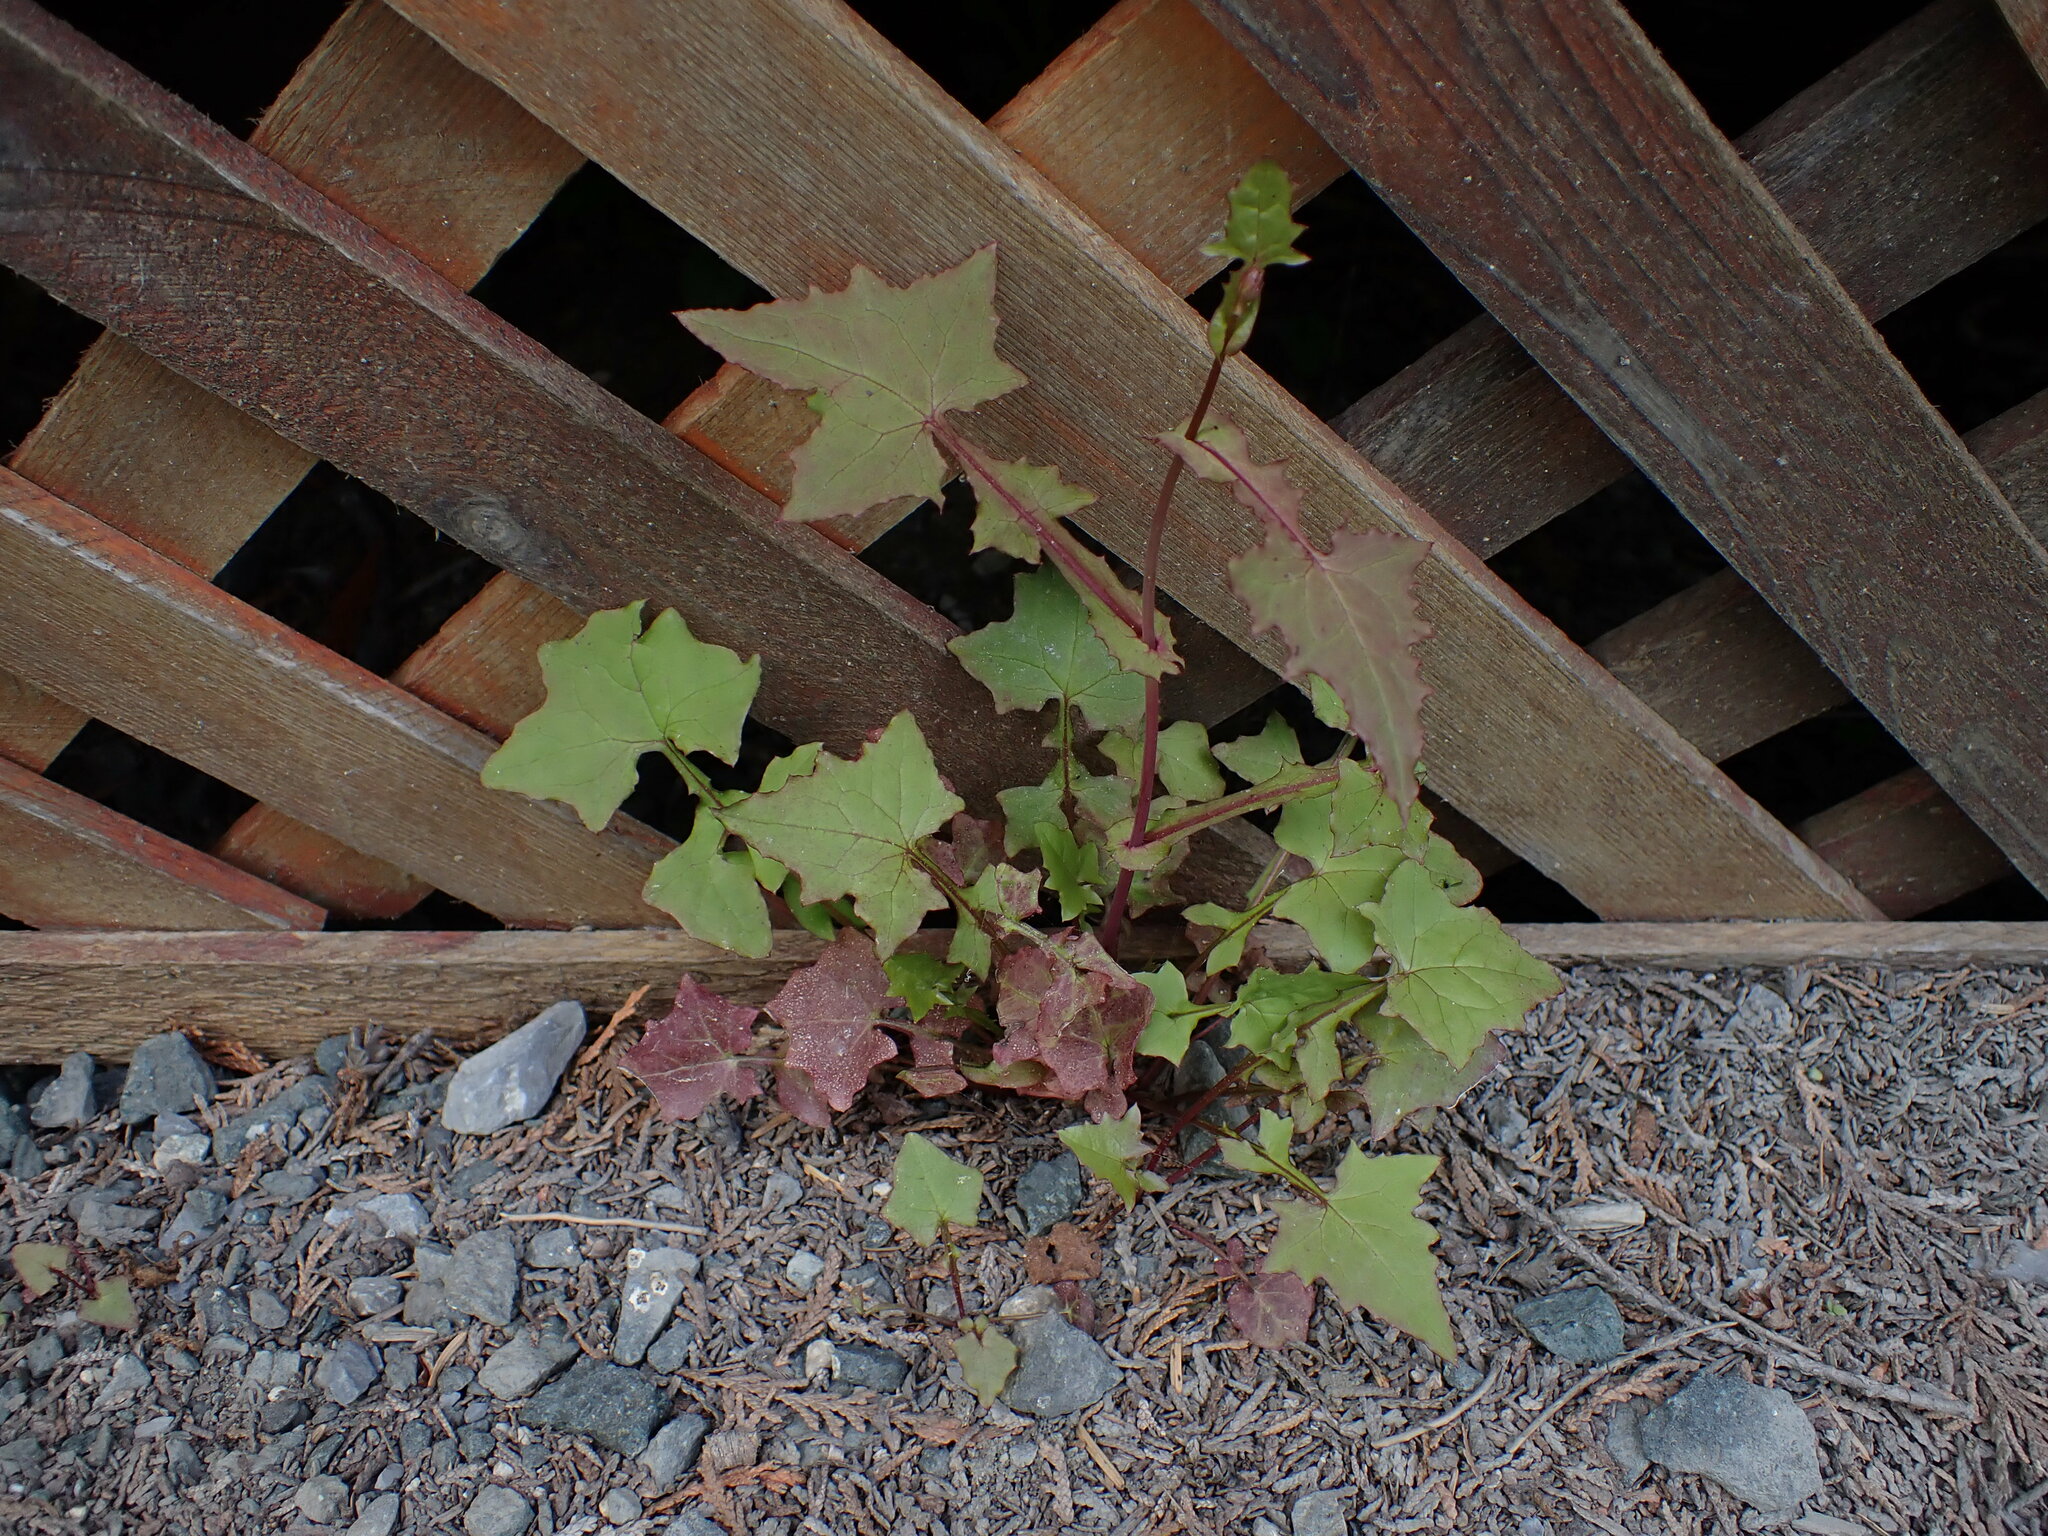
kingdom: Plantae
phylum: Tracheophyta
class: Magnoliopsida
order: Asterales
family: Asteraceae
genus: Mycelis
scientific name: Mycelis muralis
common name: Wall lettuce
